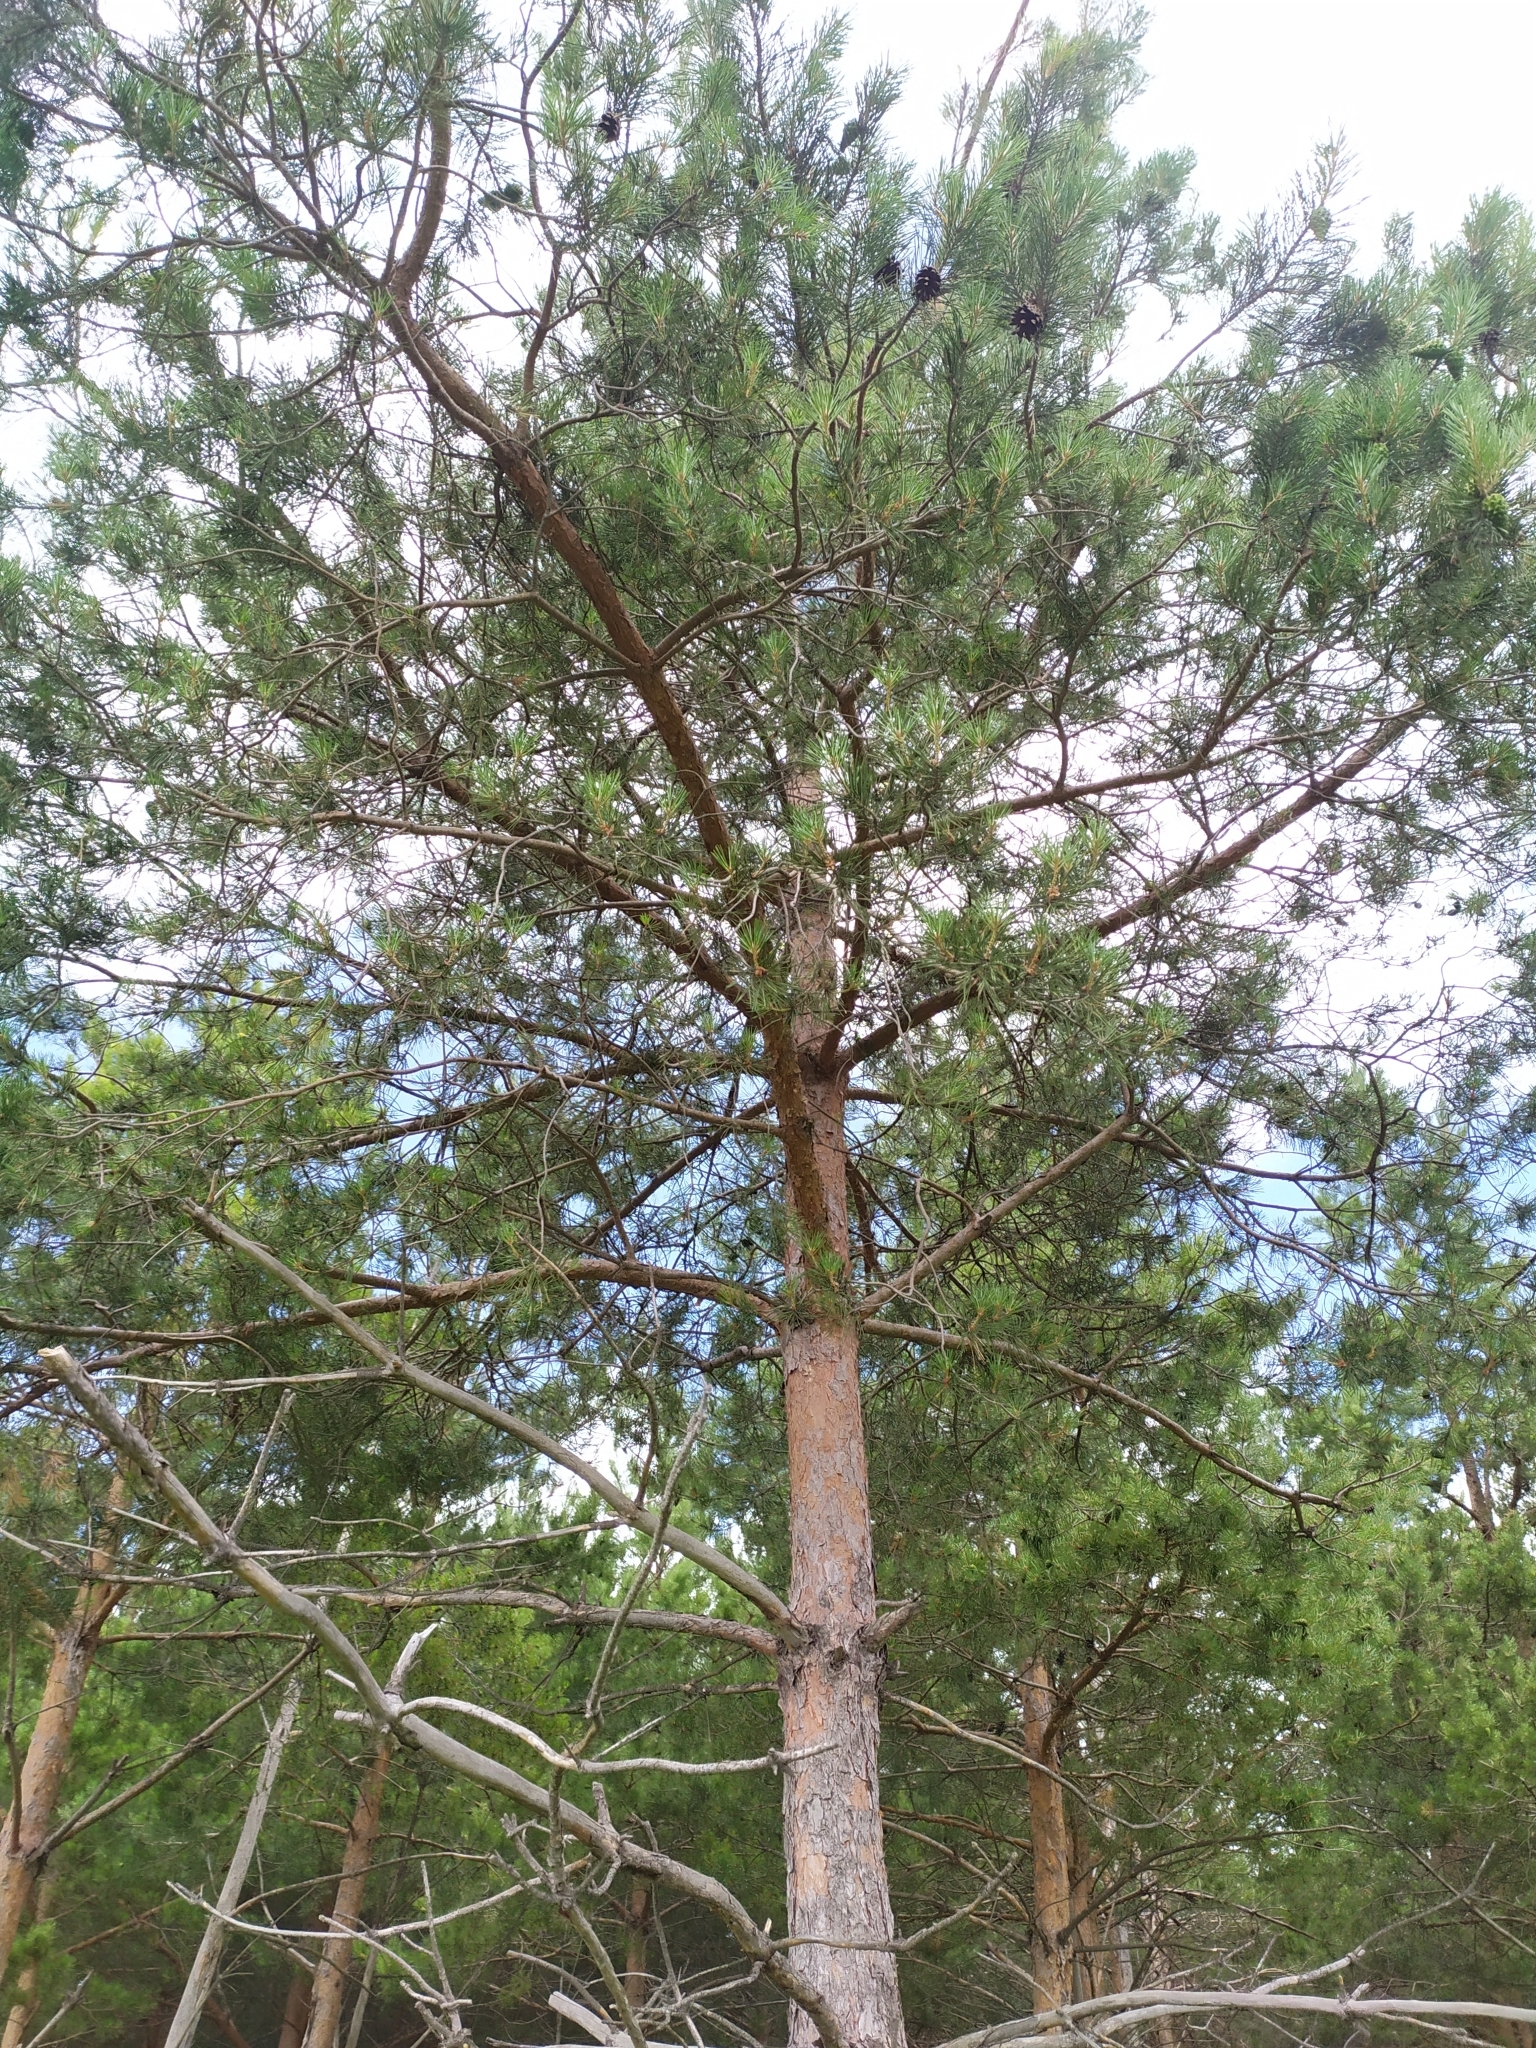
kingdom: Plantae
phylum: Tracheophyta
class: Pinopsida
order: Pinales
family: Pinaceae
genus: Pinus
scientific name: Pinus sylvestris
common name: Scots pine
